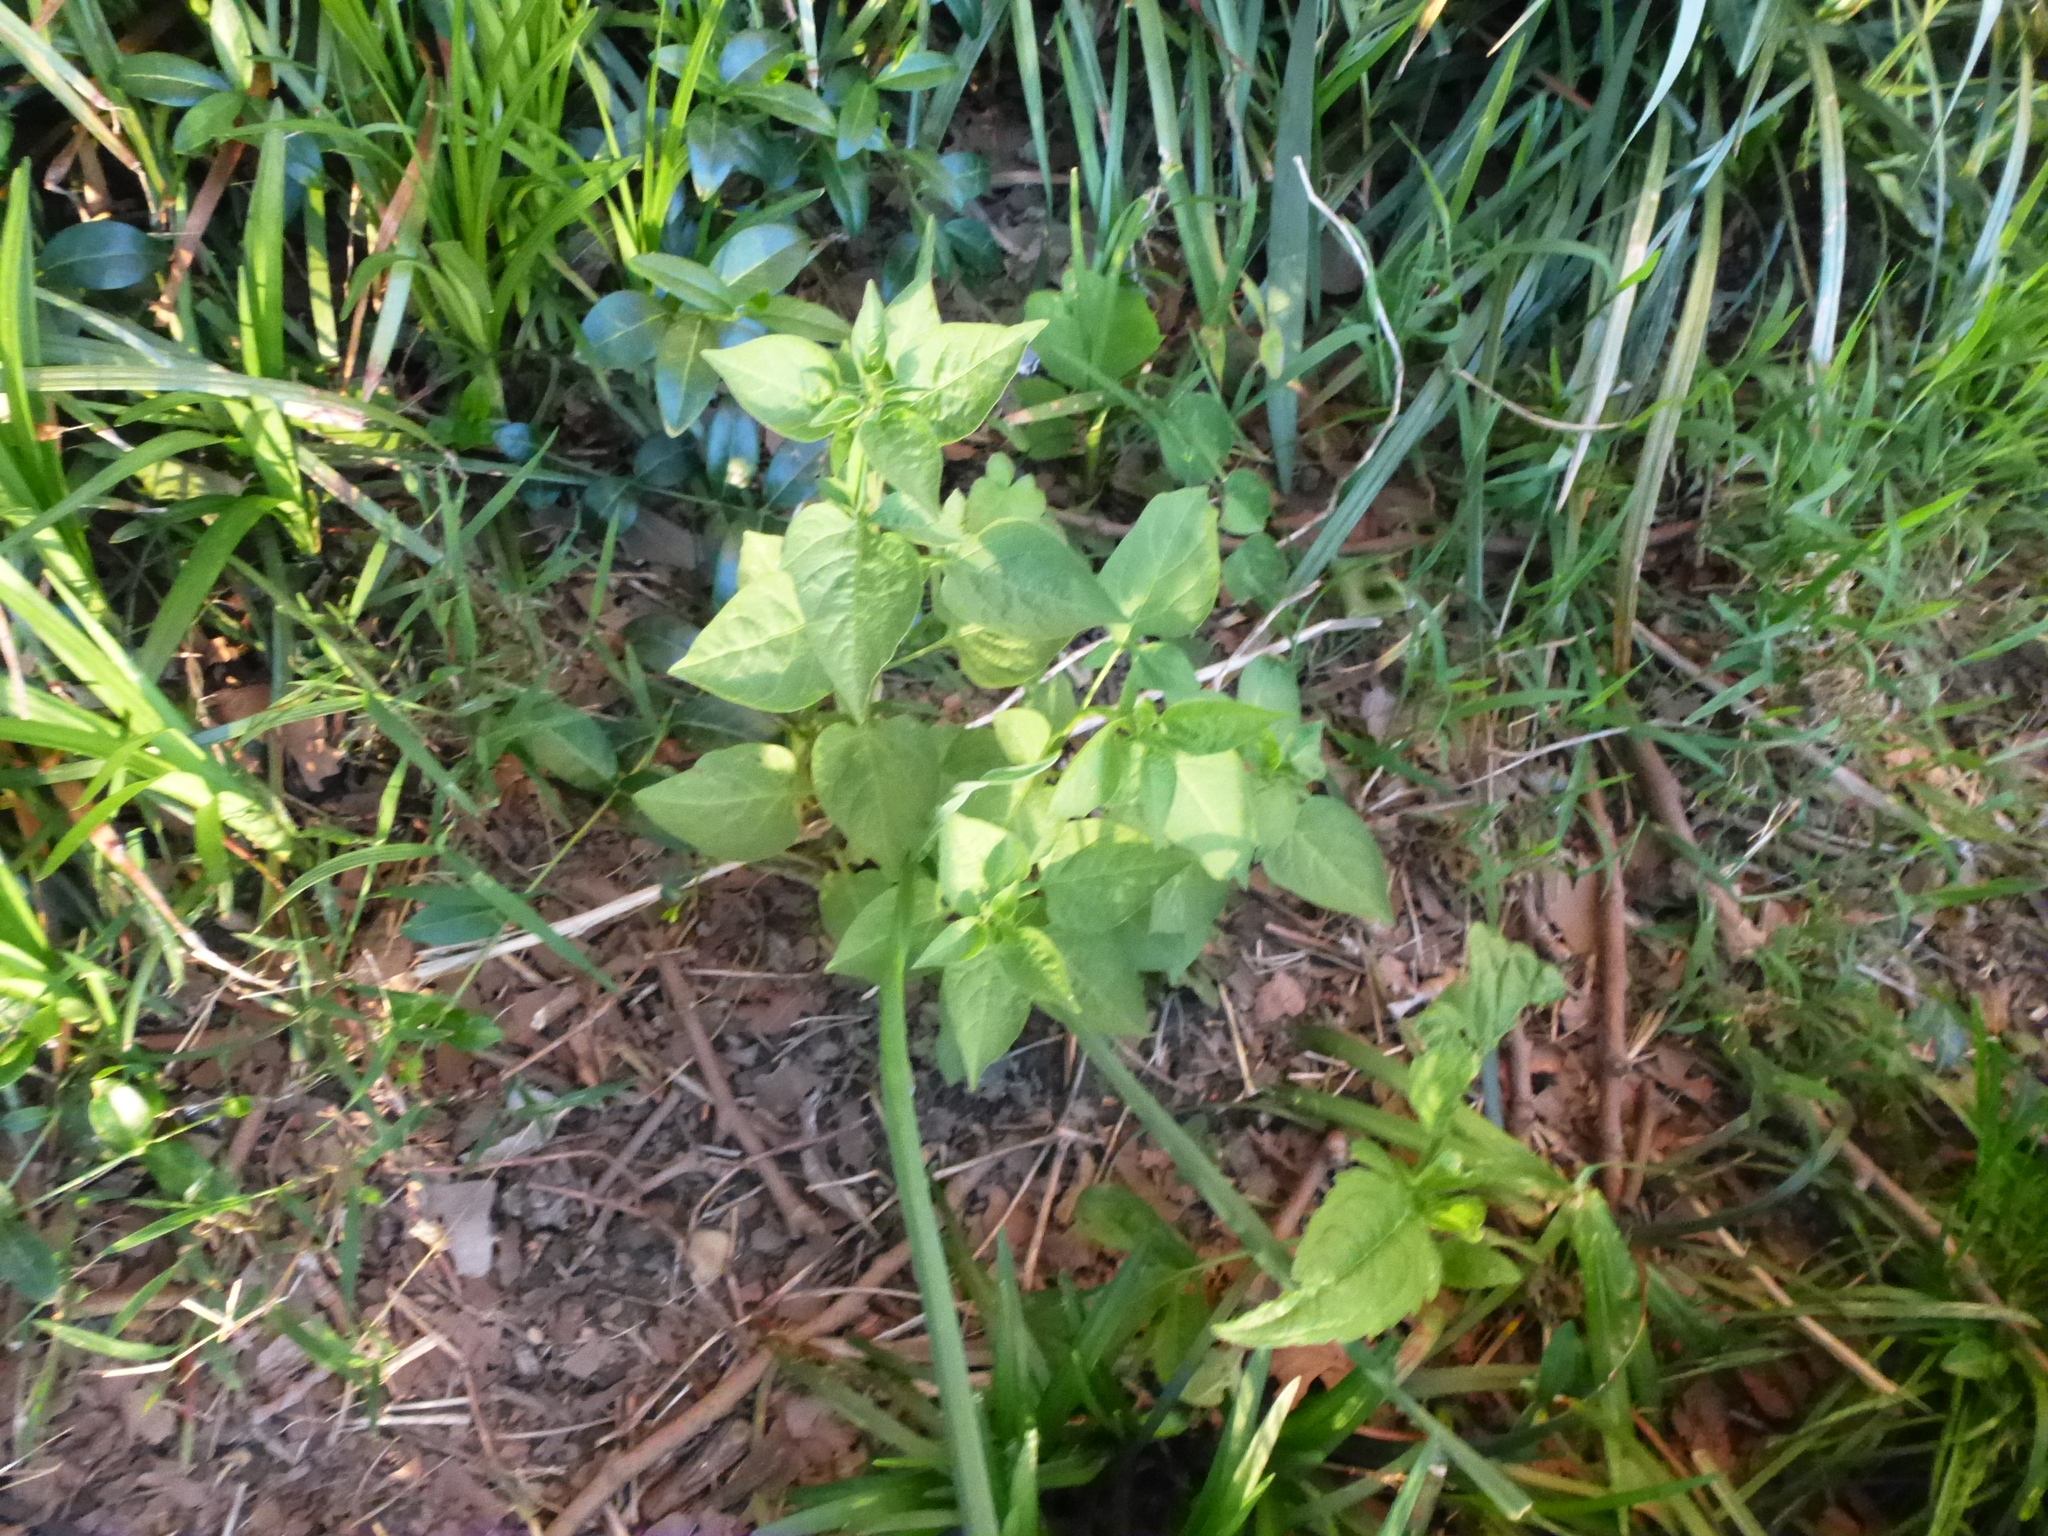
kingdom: Plantae
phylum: Tracheophyta
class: Magnoliopsida
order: Solanales
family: Solanaceae
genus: Solanum
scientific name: Solanum dulcamara
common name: Climbing nightshade
